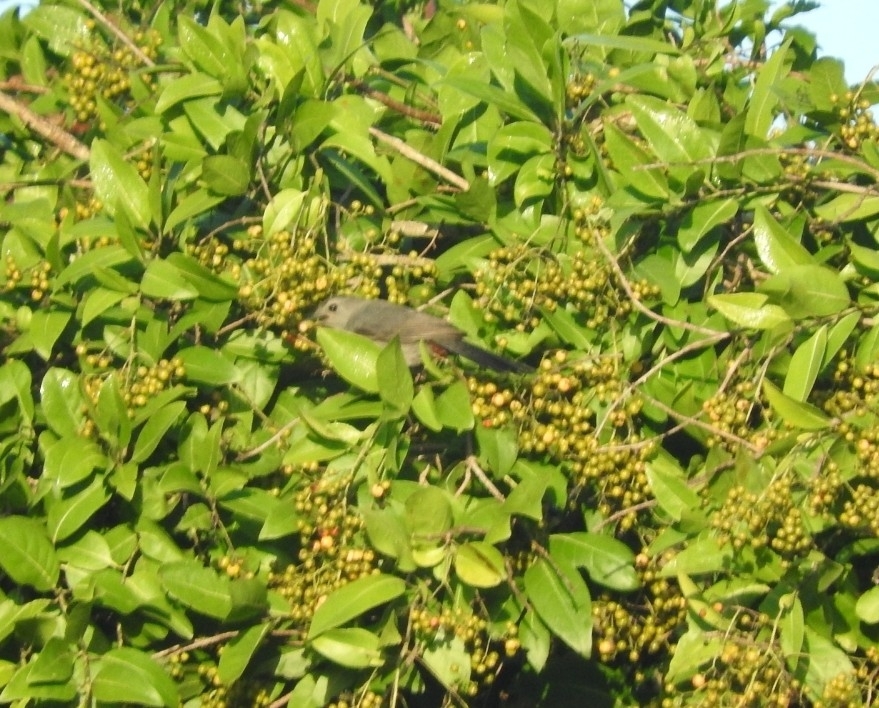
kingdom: Animalia
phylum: Chordata
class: Aves
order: Passeriformes
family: Mimidae
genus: Dumetella
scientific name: Dumetella carolinensis
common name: Gray catbird
